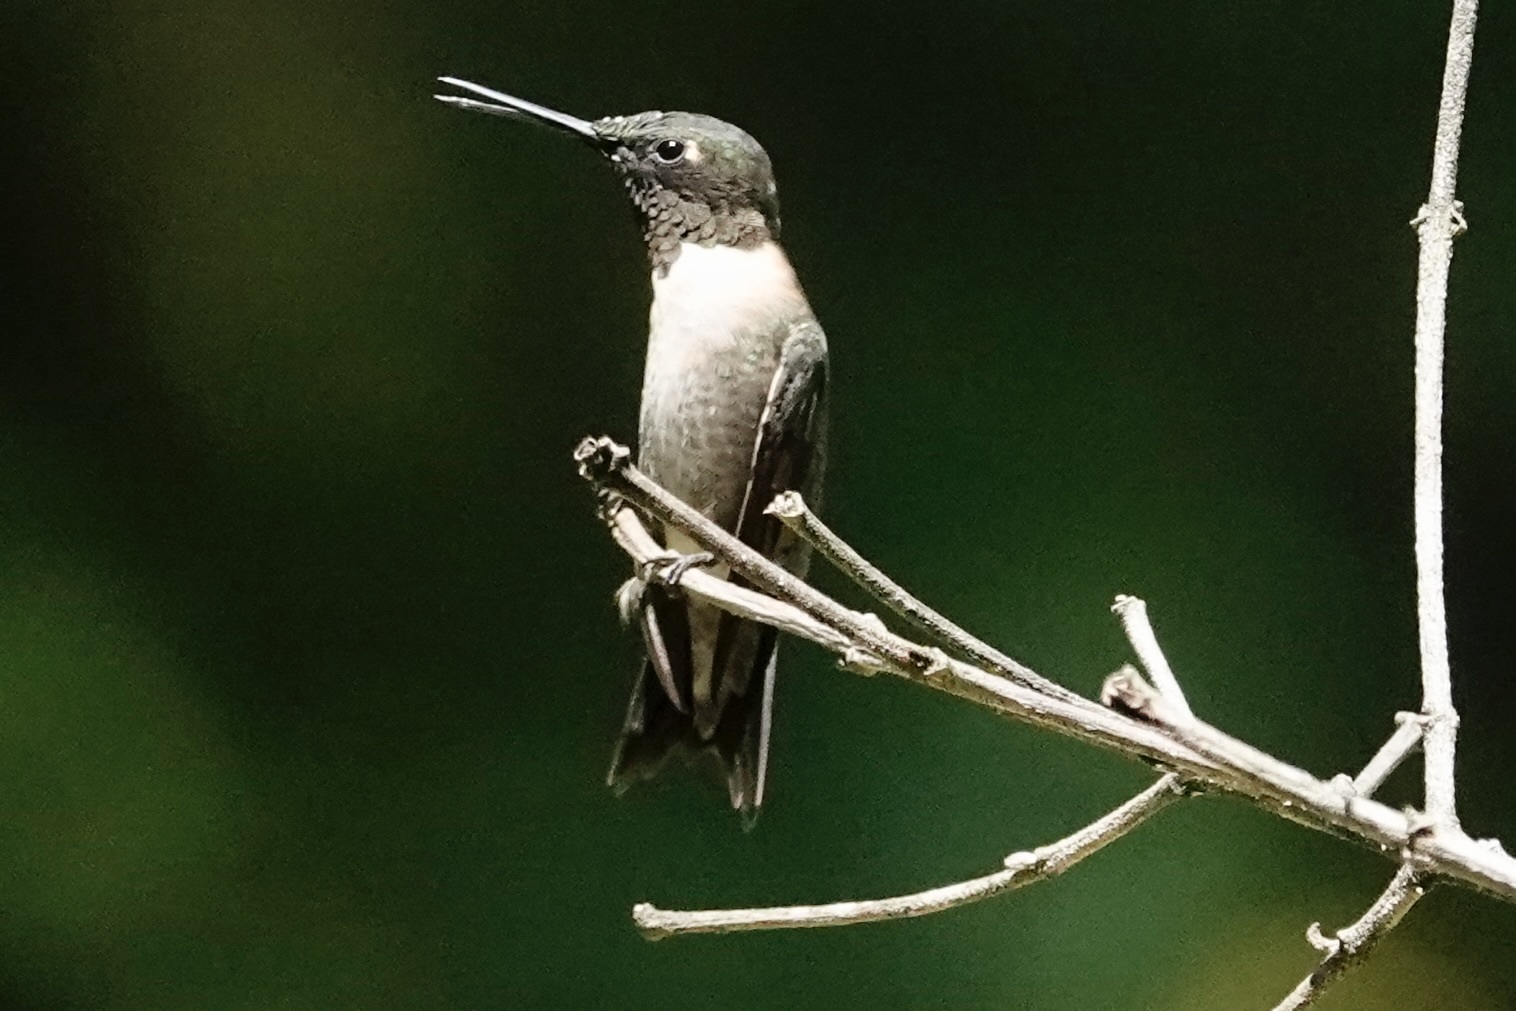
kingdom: Animalia
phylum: Chordata
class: Aves
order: Apodiformes
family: Trochilidae
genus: Archilochus
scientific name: Archilochus colubris
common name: Ruby-throated hummingbird
